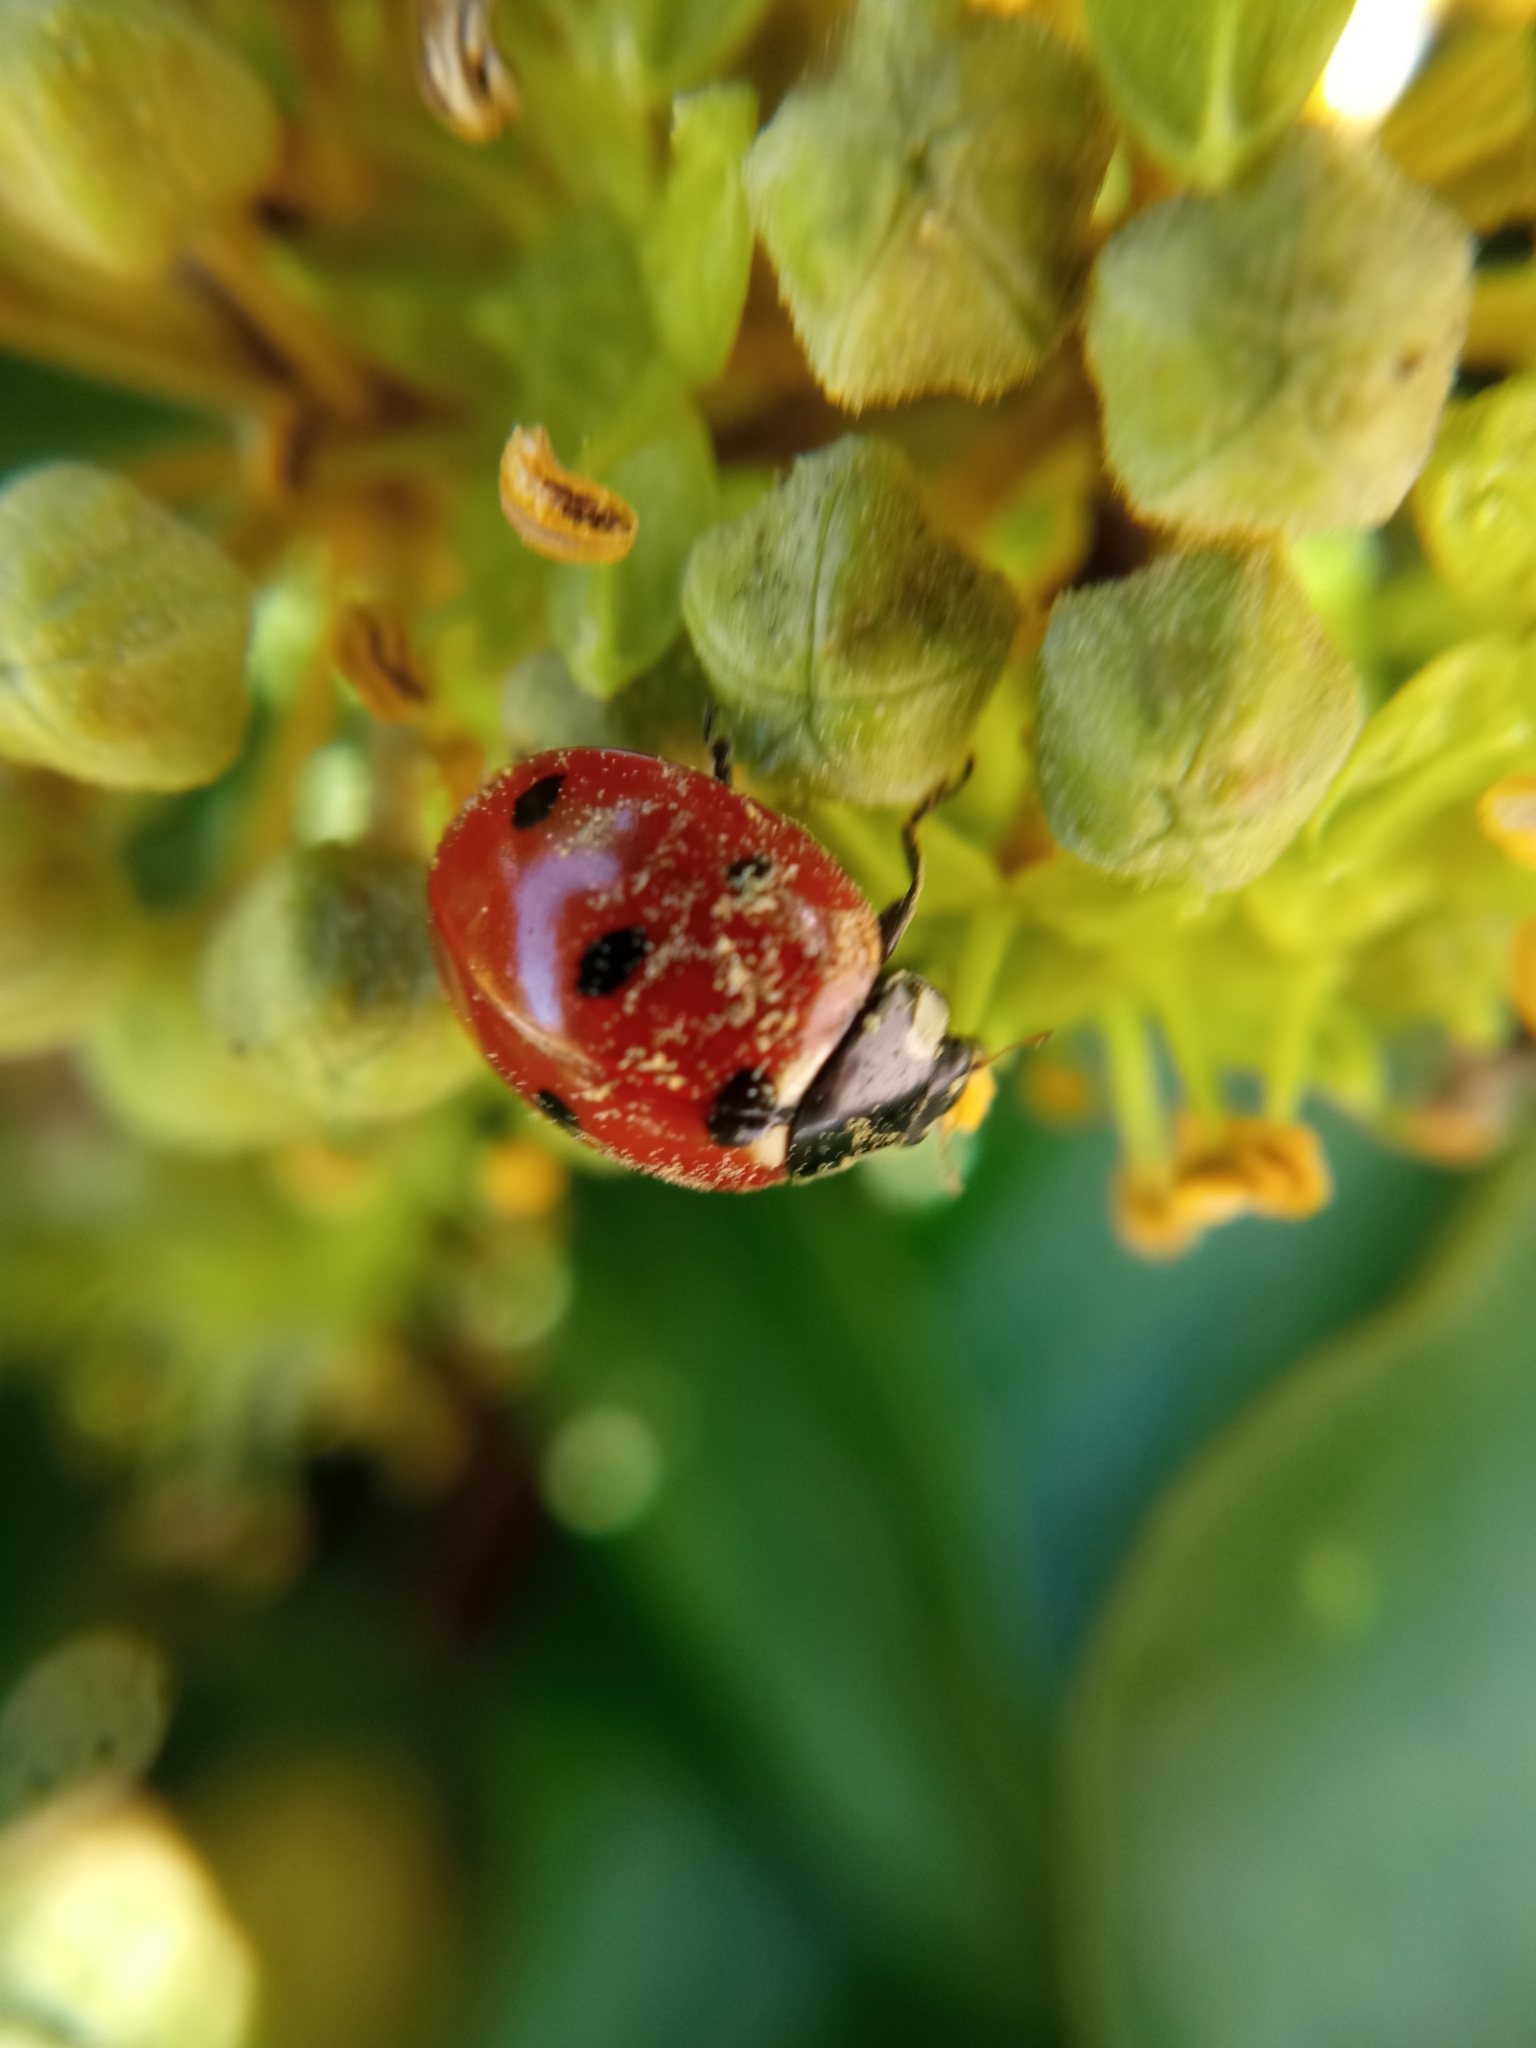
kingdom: Animalia
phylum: Arthropoda
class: Insecta
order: Coleoptera
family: Coccinellidae
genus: Coccinella
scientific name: Coccinella septempunctata
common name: Sevenspotted lady beetle
